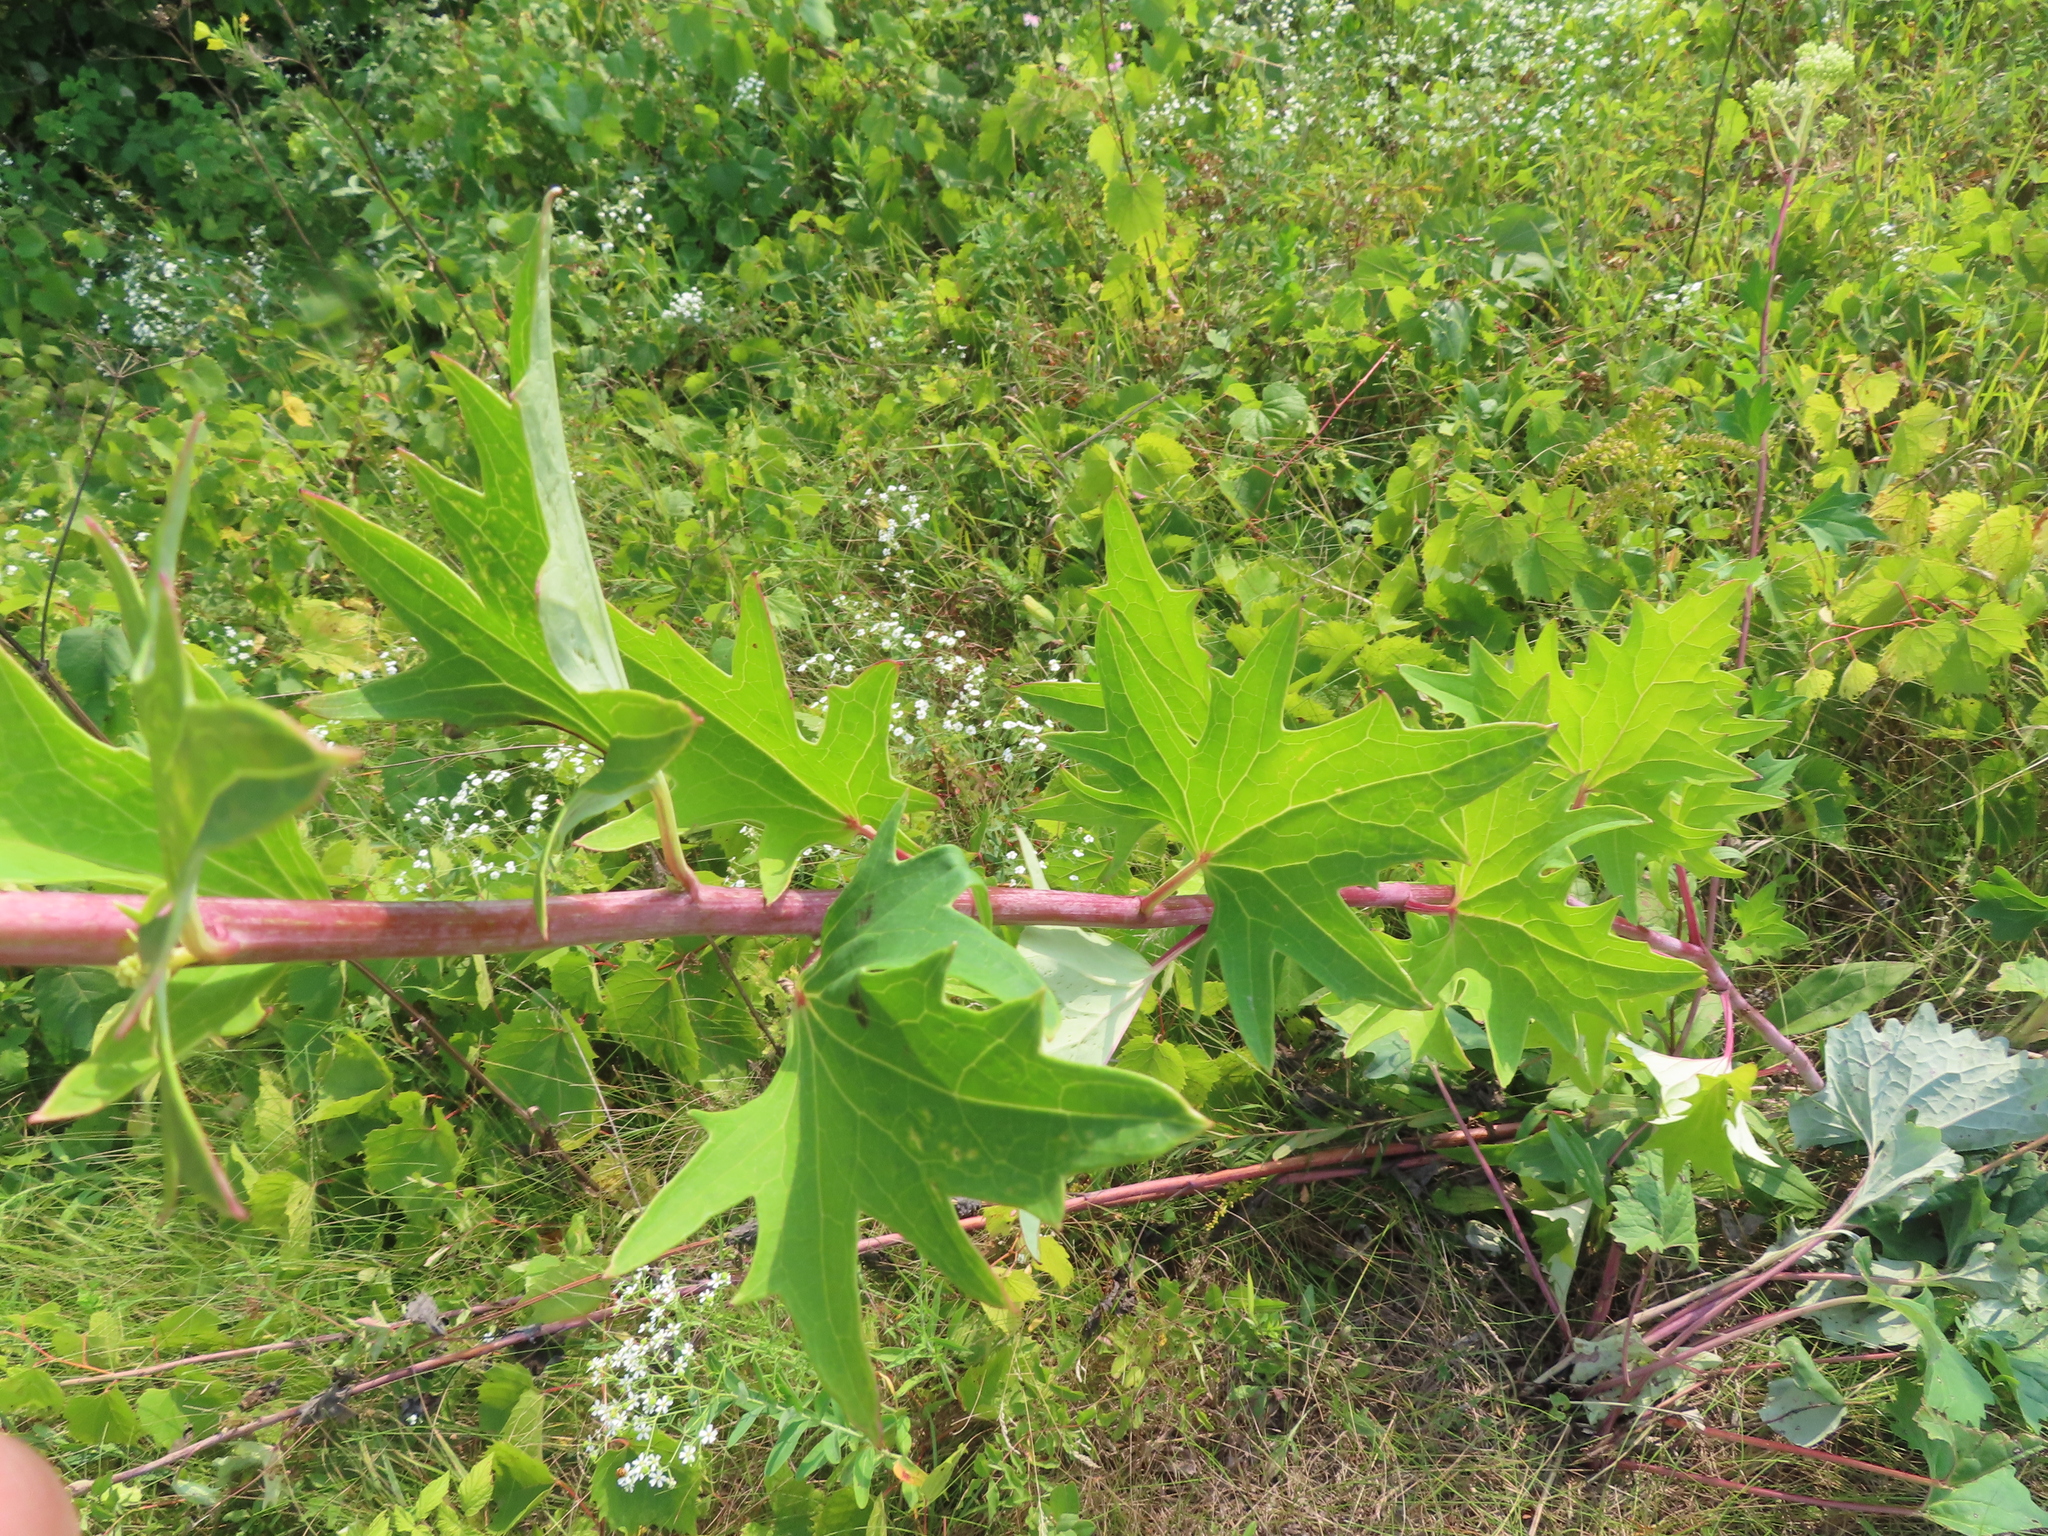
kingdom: Plantae
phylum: Tracheophyta
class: Magnoliopsida
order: Asterales
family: Asteraceae
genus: Arnoglossum
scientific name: Arnoglossum atriplicifolium
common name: Pale indian-plantain
